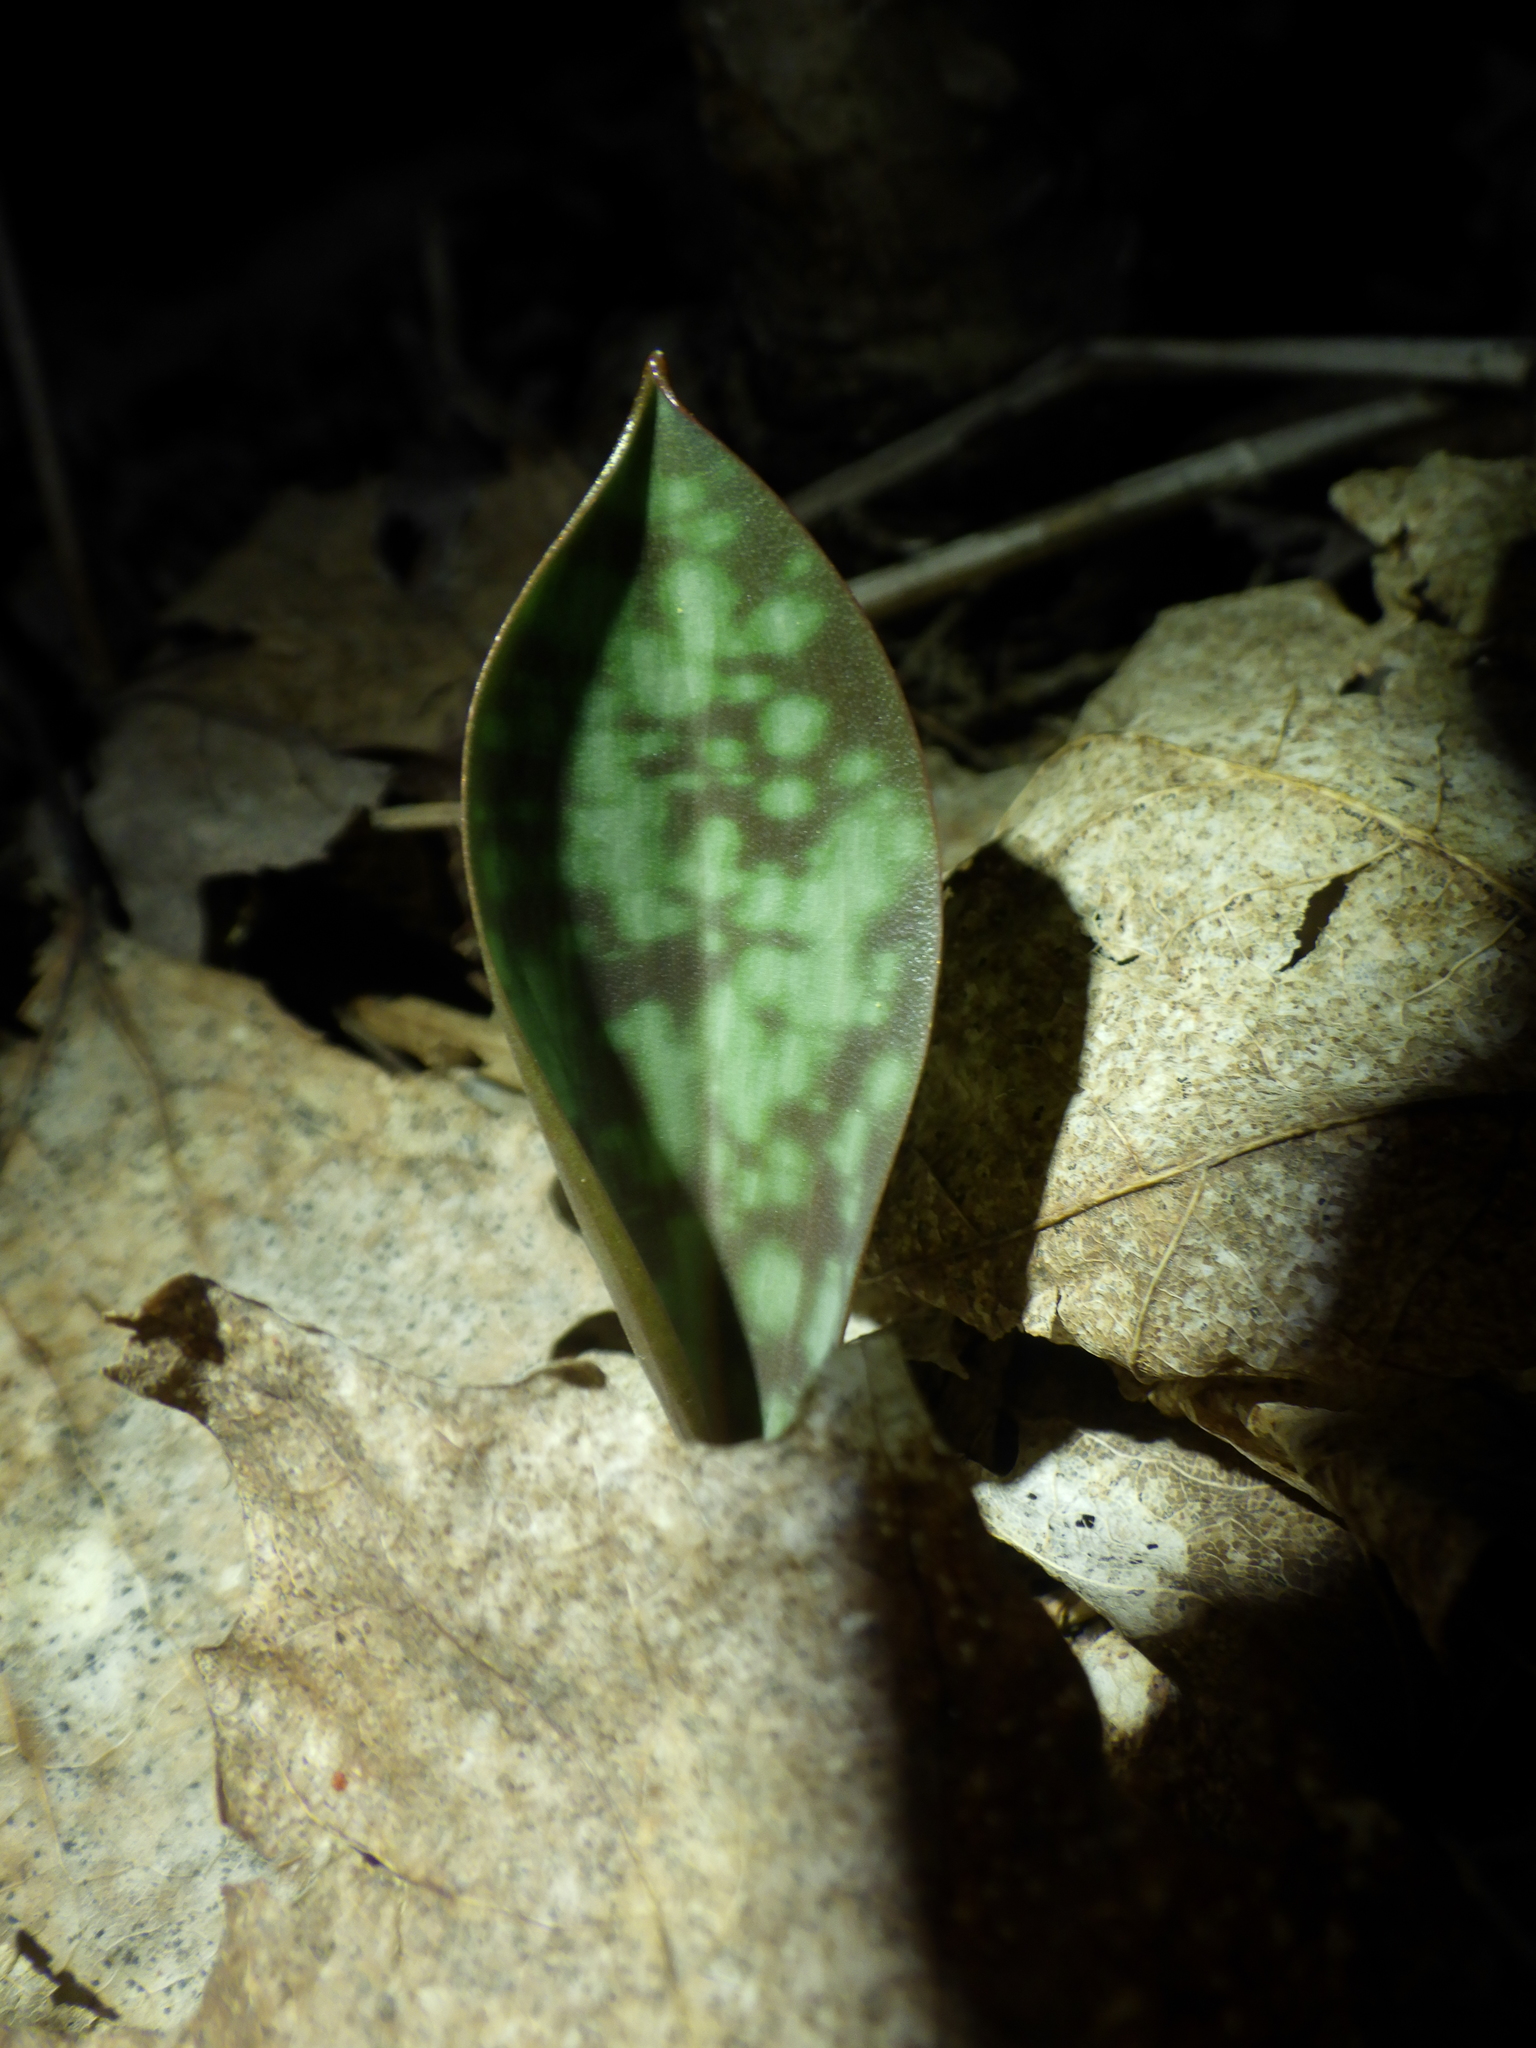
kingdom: Plantae
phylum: Tracheophyta
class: Liliopsida
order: Liliales
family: Liliaceae
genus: Erythronium
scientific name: Erythronium americanum
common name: Yellow adder's-tongue
